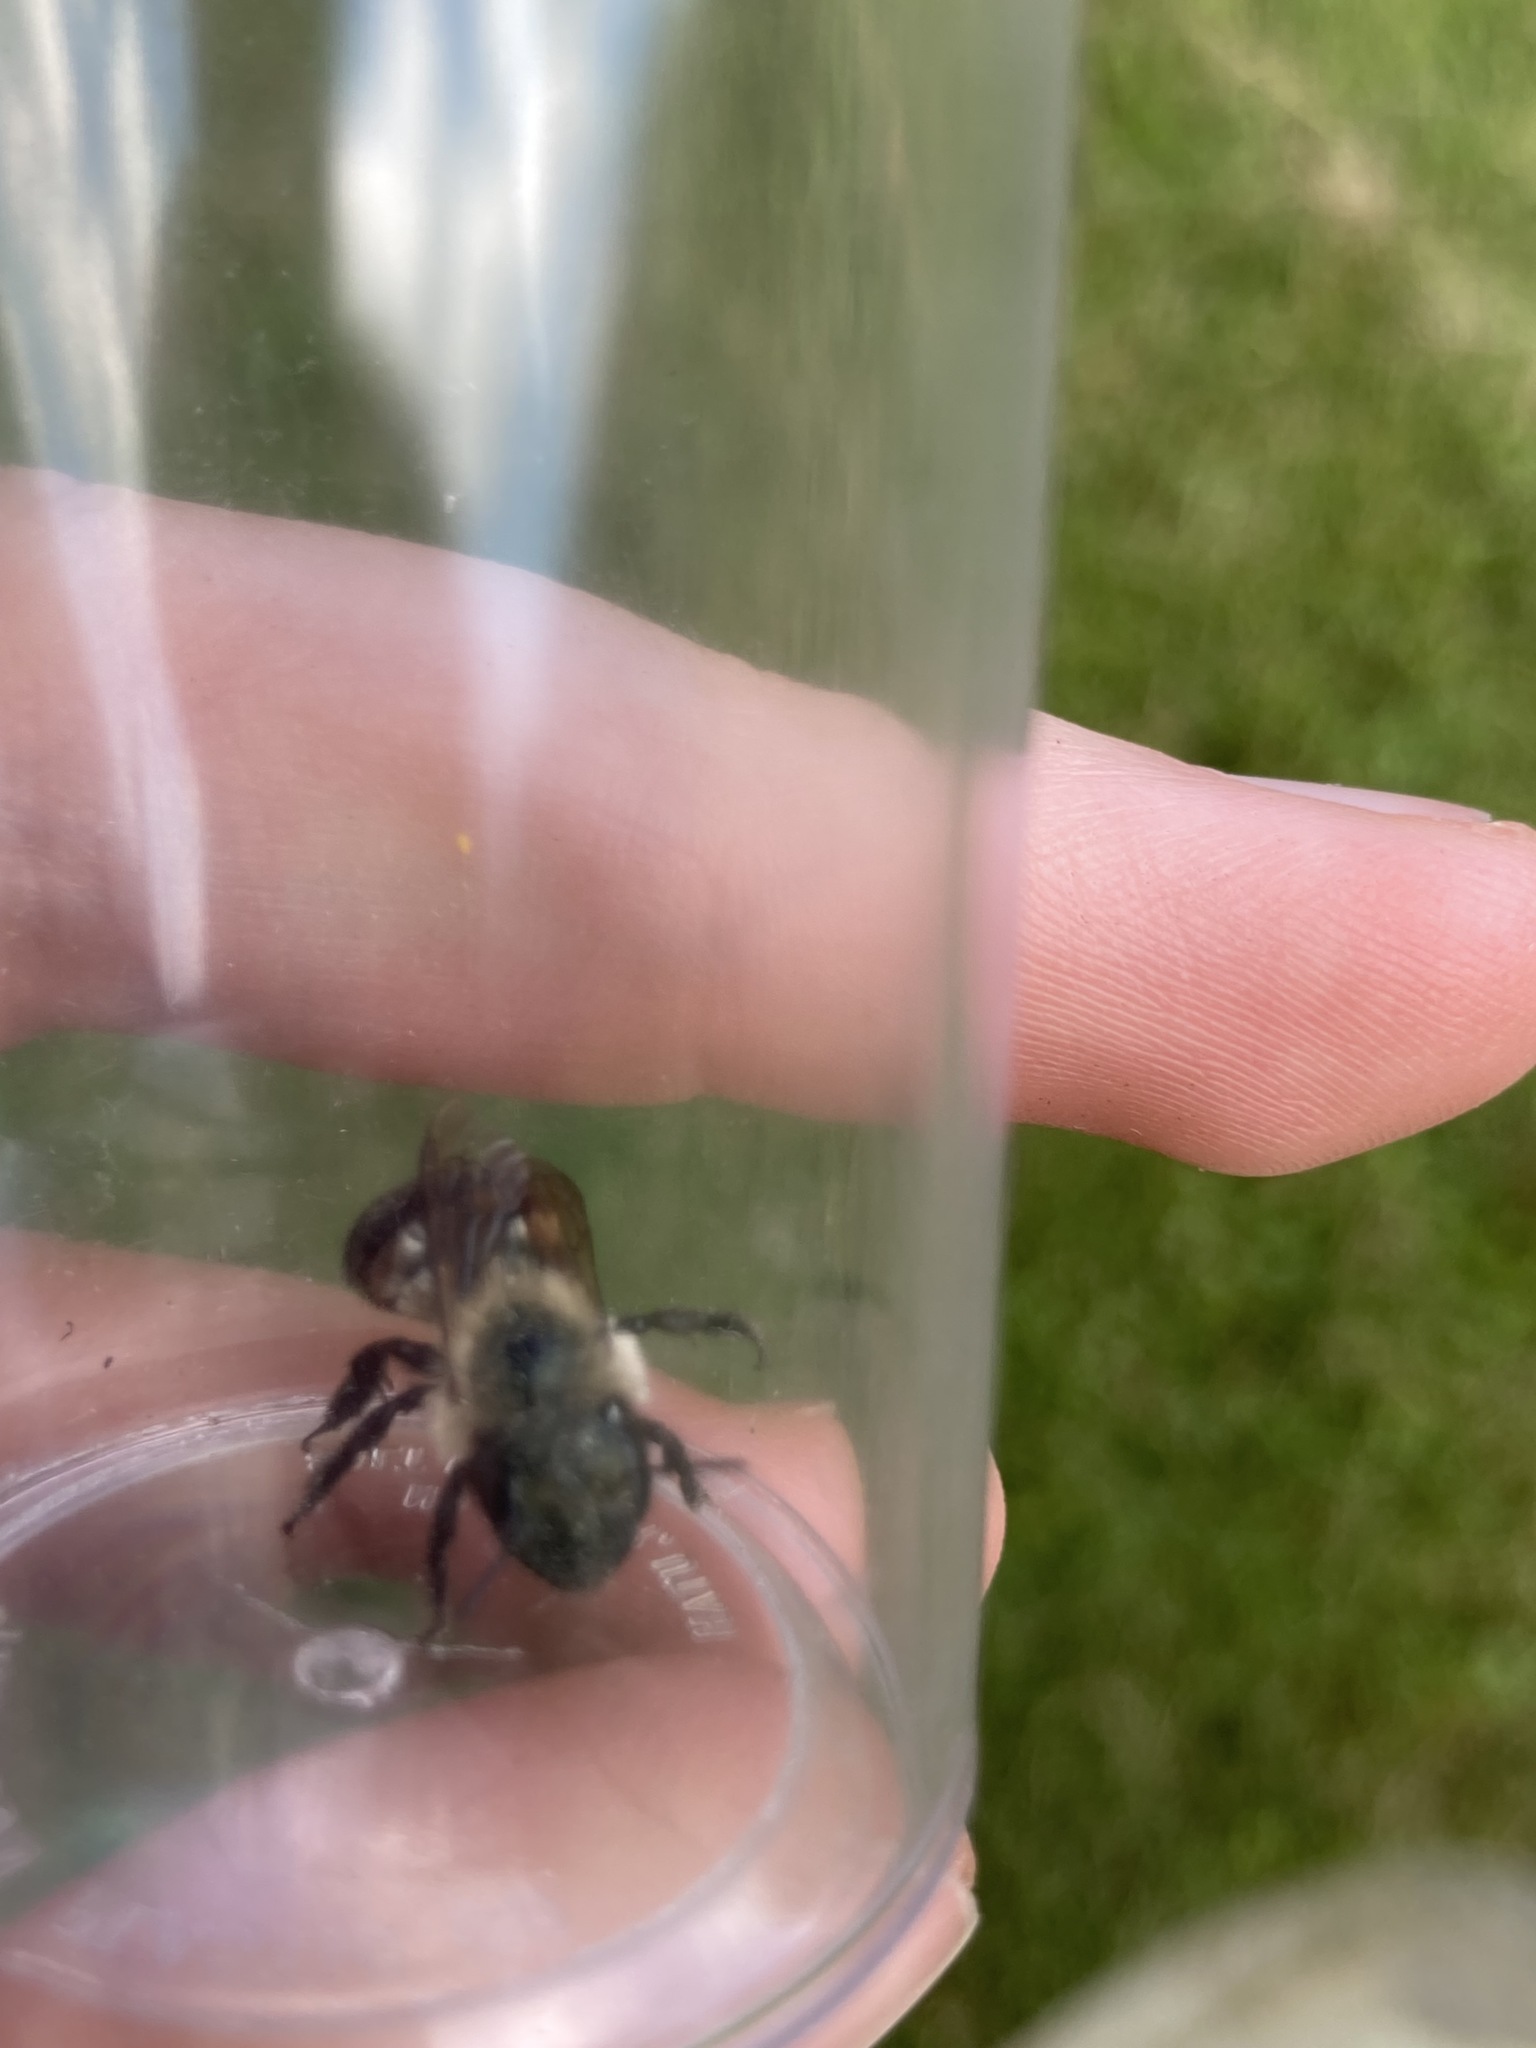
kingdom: Animalia
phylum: Arthropoda
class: Insecta
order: Hymenoptera
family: Megachilidae
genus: Osmia
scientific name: Osmia bucephala
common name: Bufflehead mason bee
